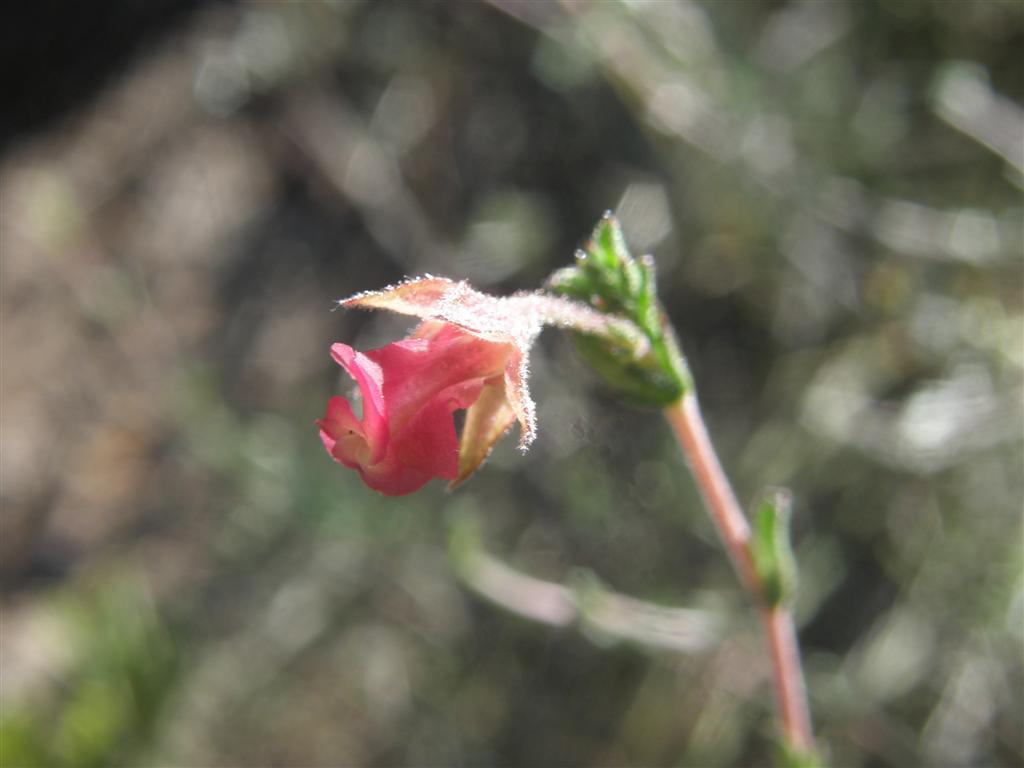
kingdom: Plantae
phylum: Tracheophyta
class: Magnoliopsida
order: Malvales
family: Malvaceae
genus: Hermannia
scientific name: Hermannia flammula
